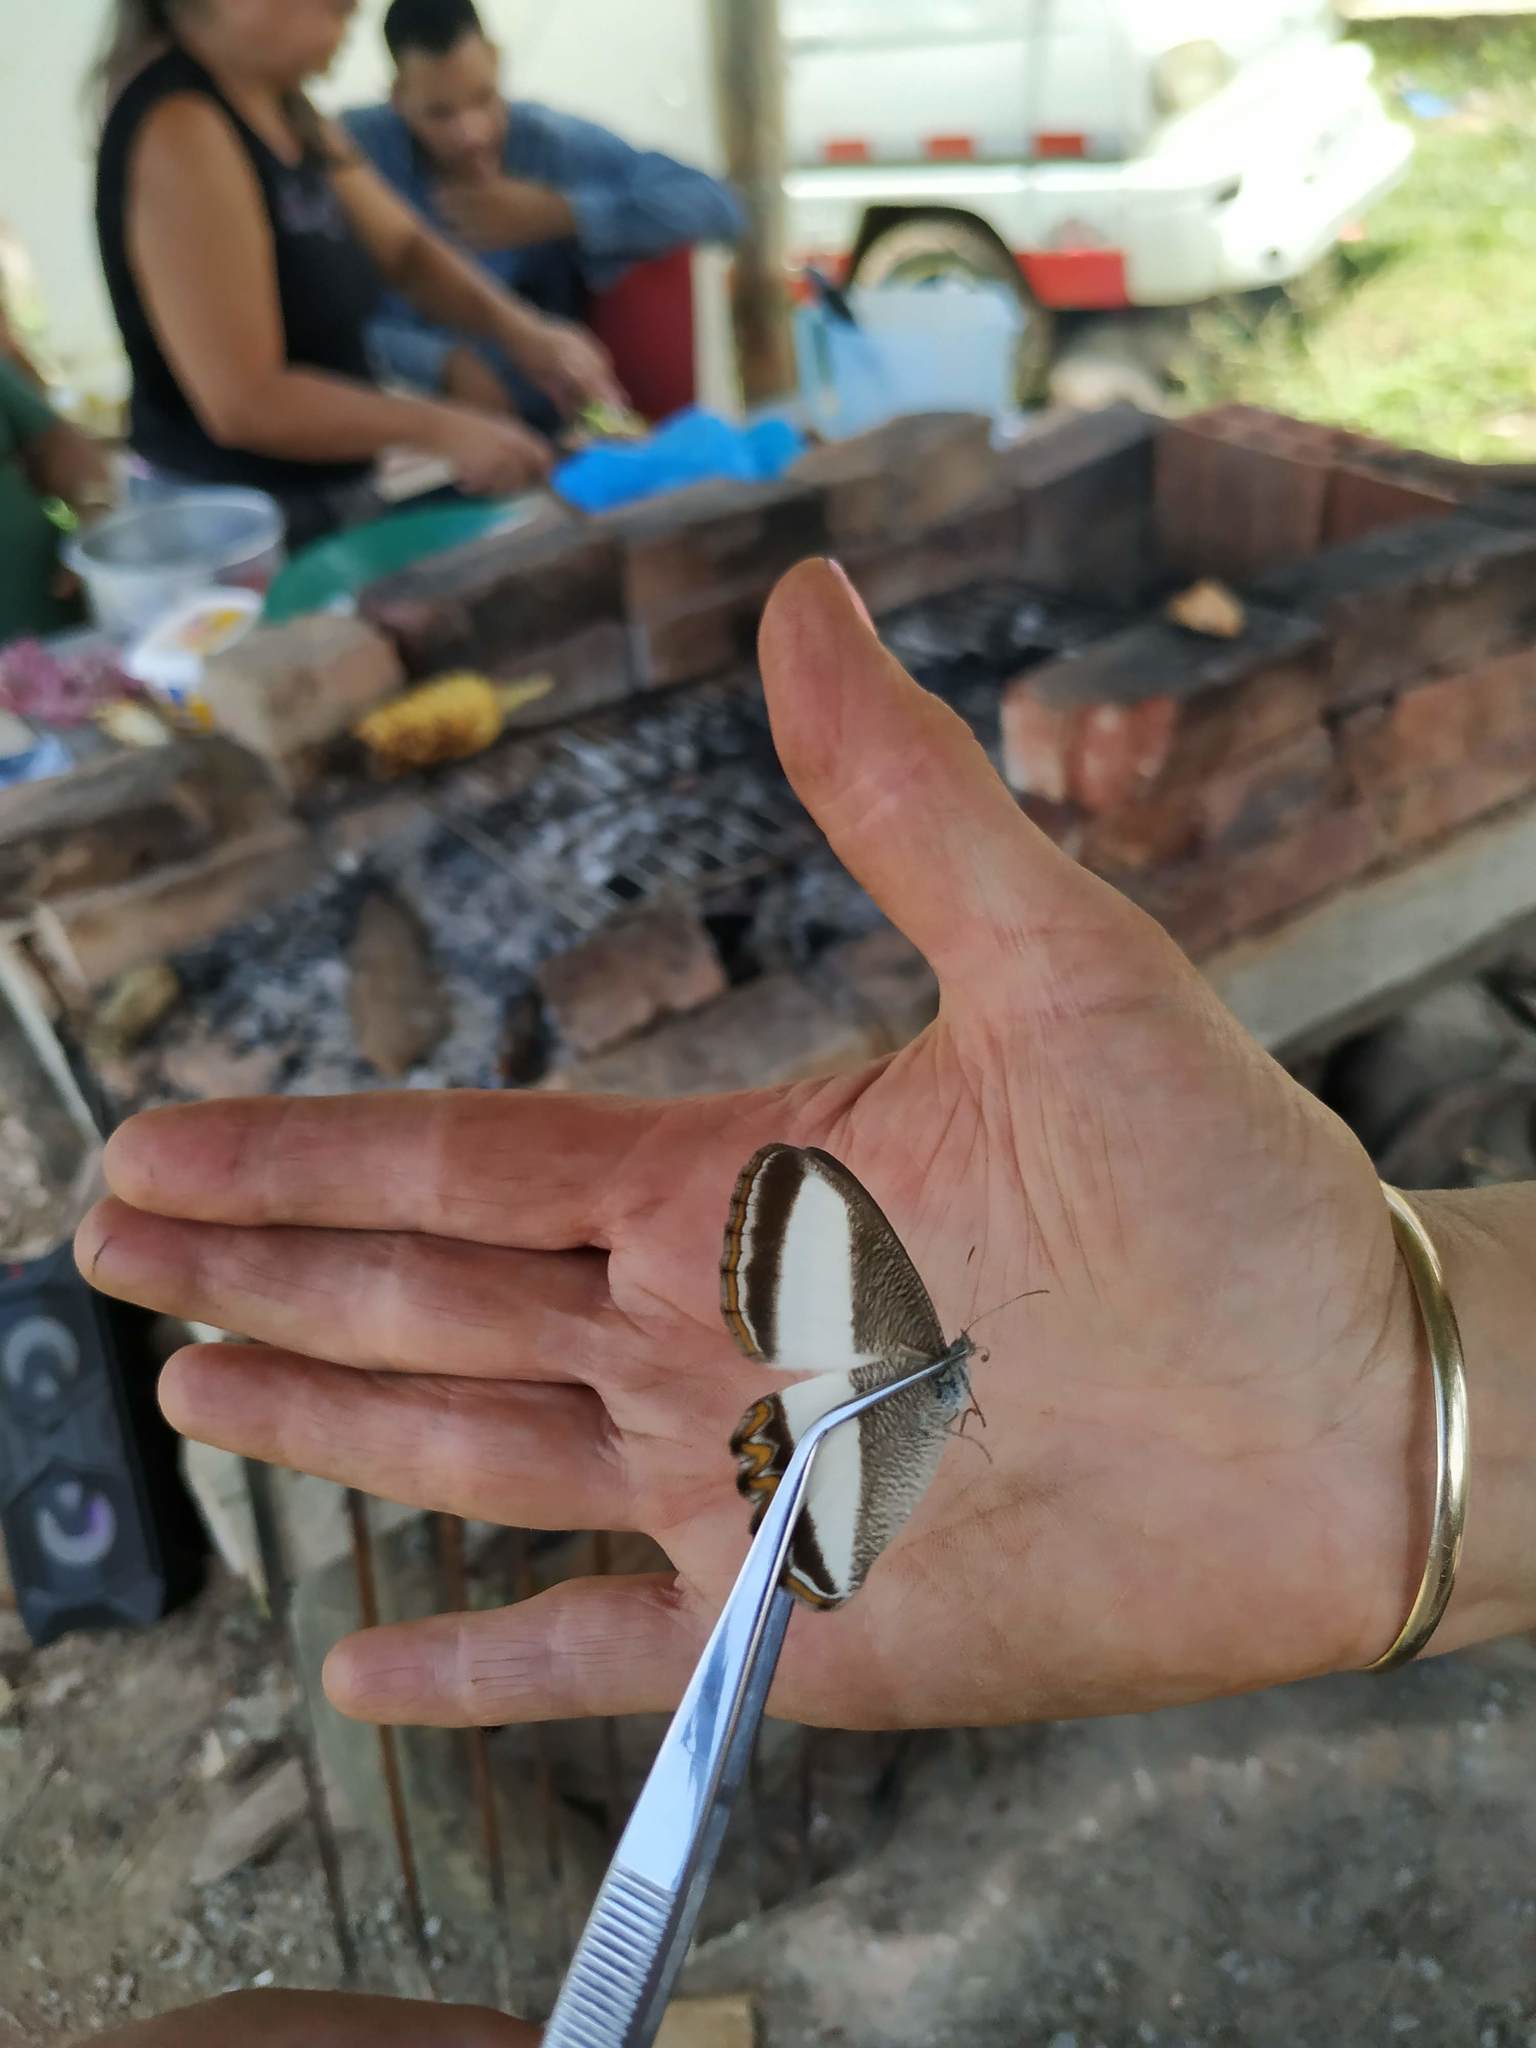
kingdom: Animalia
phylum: Arthropoda
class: Insecta
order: Lepidoptera
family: Nymphalidae
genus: Oressinoma
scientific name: Oressinoma typhla
